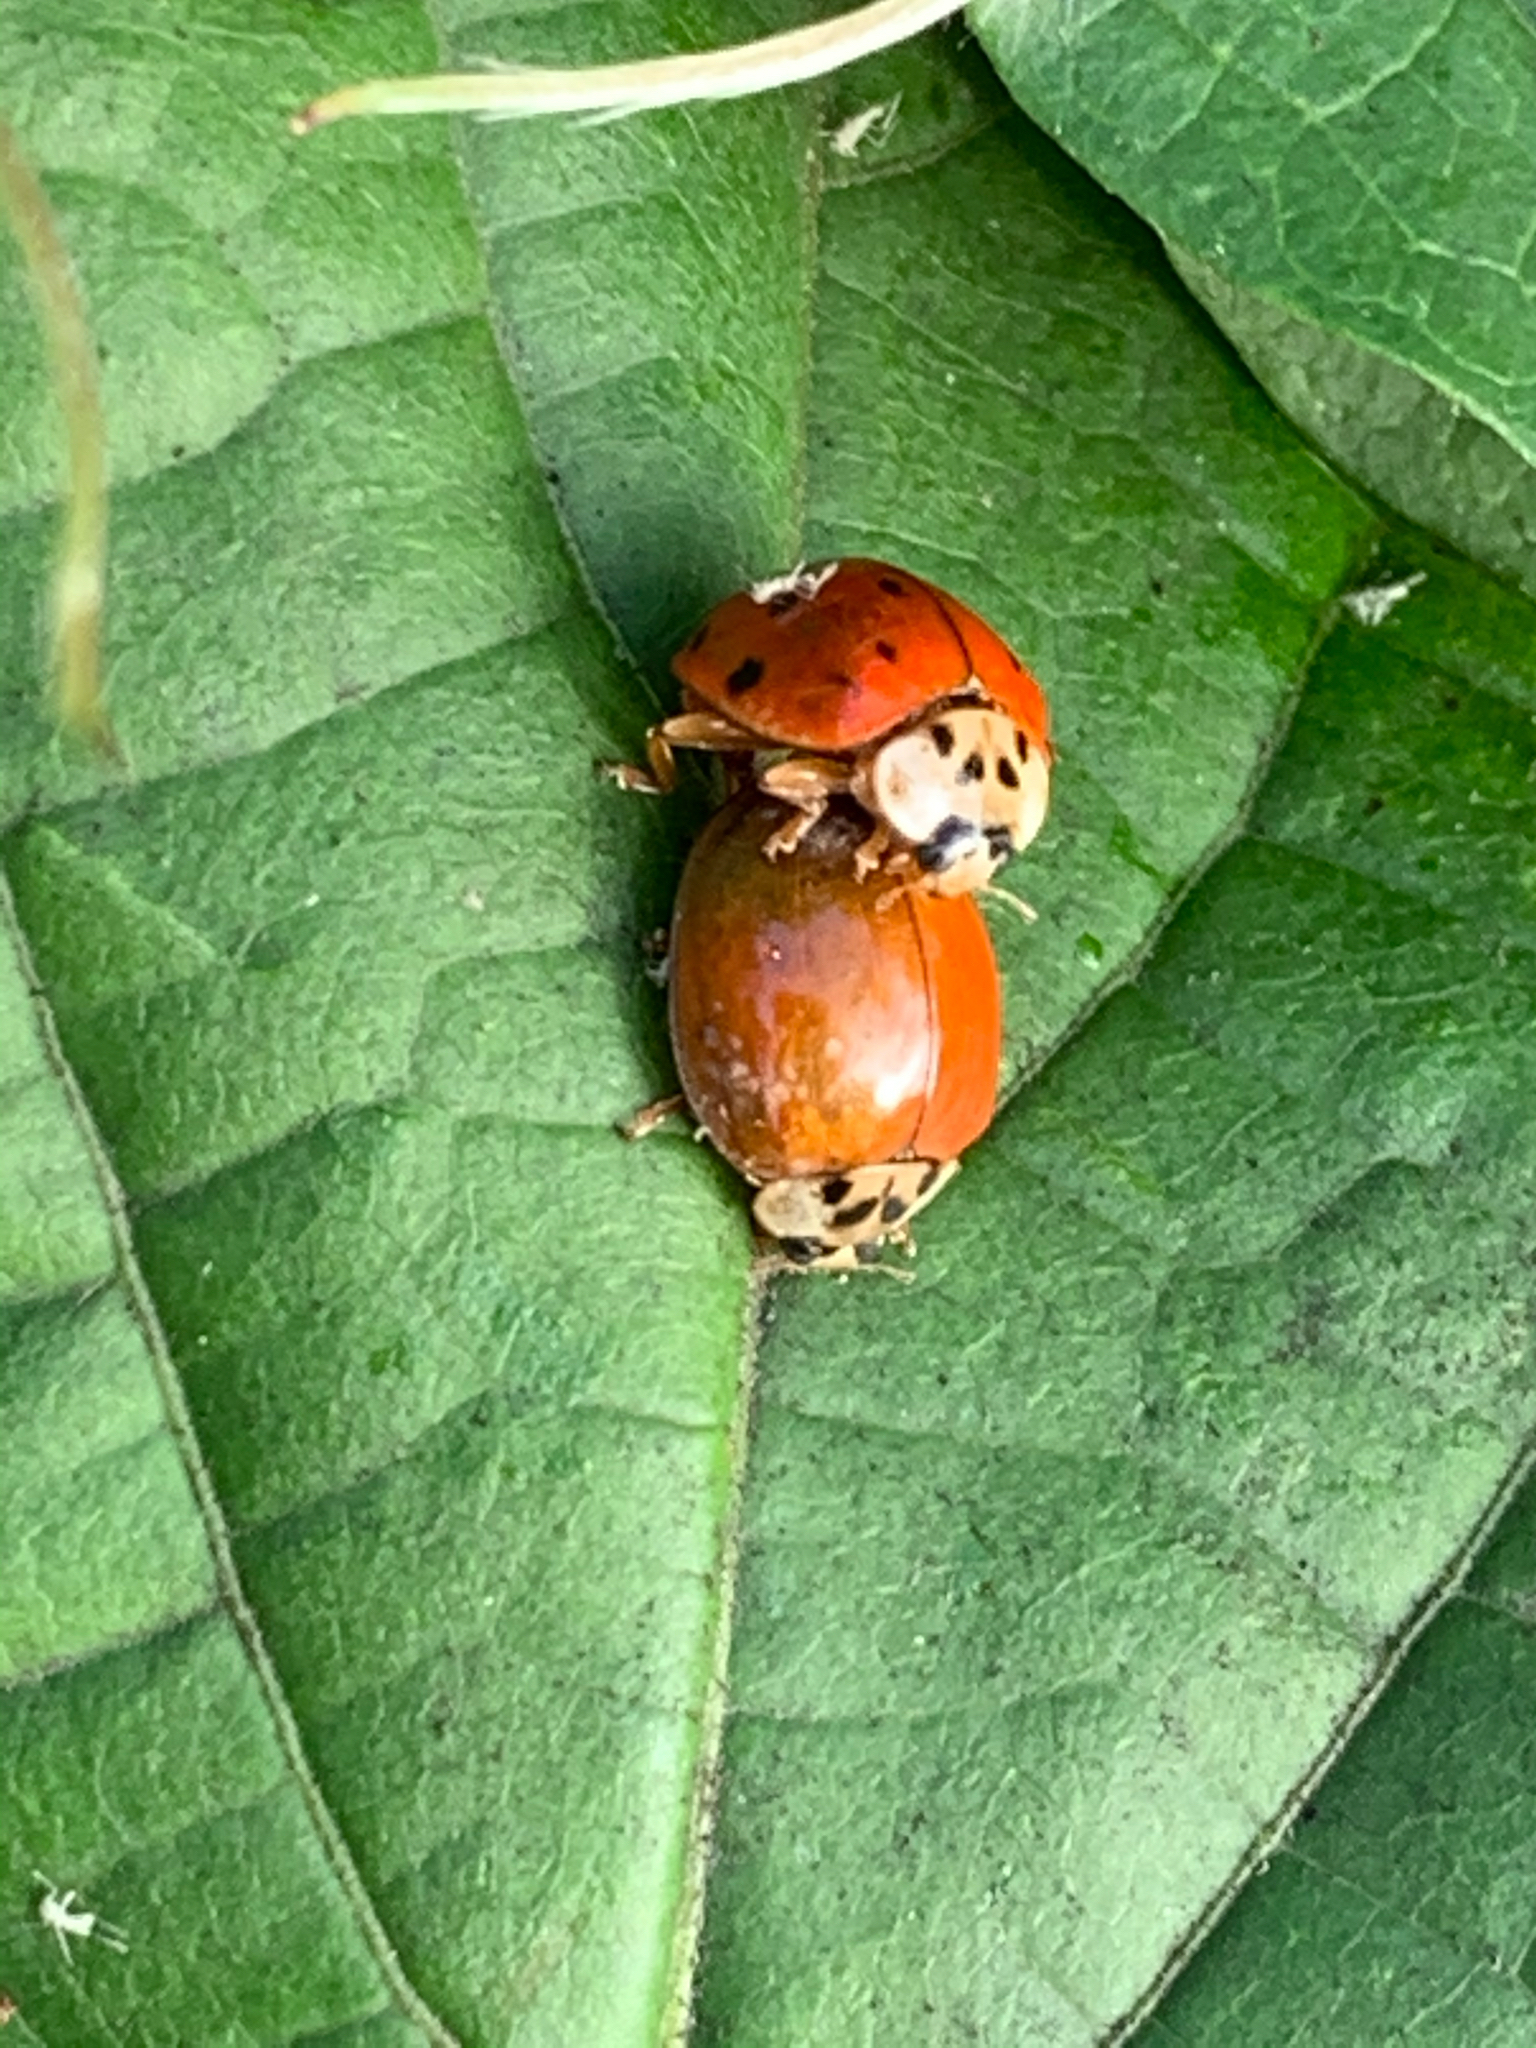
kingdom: Animalia
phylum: Arthropoda
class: Insecta
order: Coleoptera
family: Coccinellidae
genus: Harmonia
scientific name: Harmonia axyridis
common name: Harlequin ladybird
